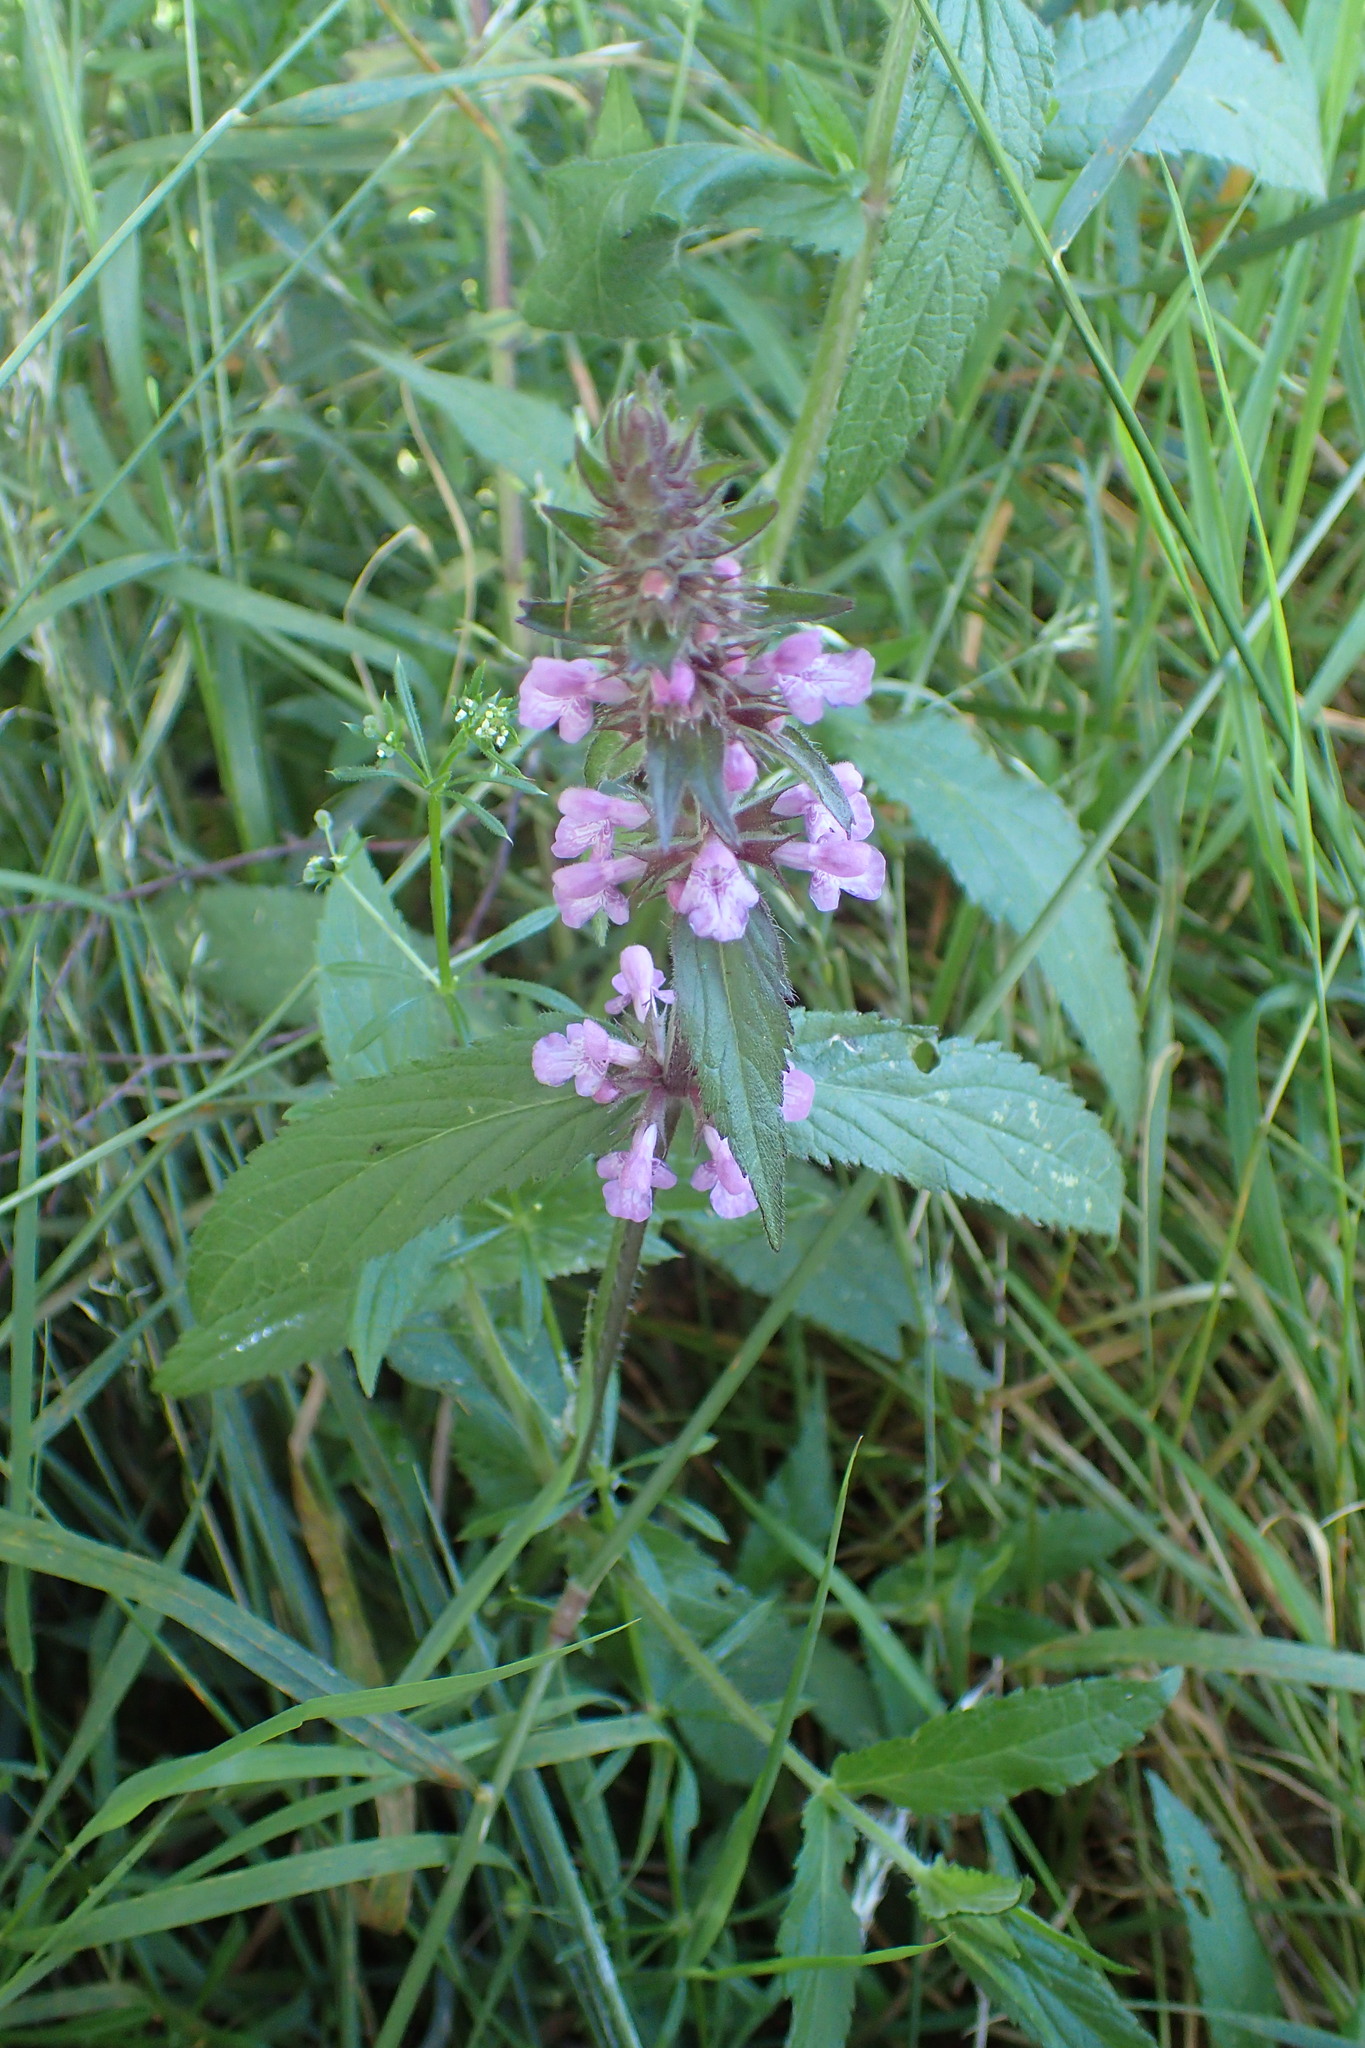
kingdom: Plantae
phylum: Tracheophyta
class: Magnoliopsida
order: Lamiales
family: Lamiaceae
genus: Stachys
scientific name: Stachys palustris
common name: Marsh woundwort
